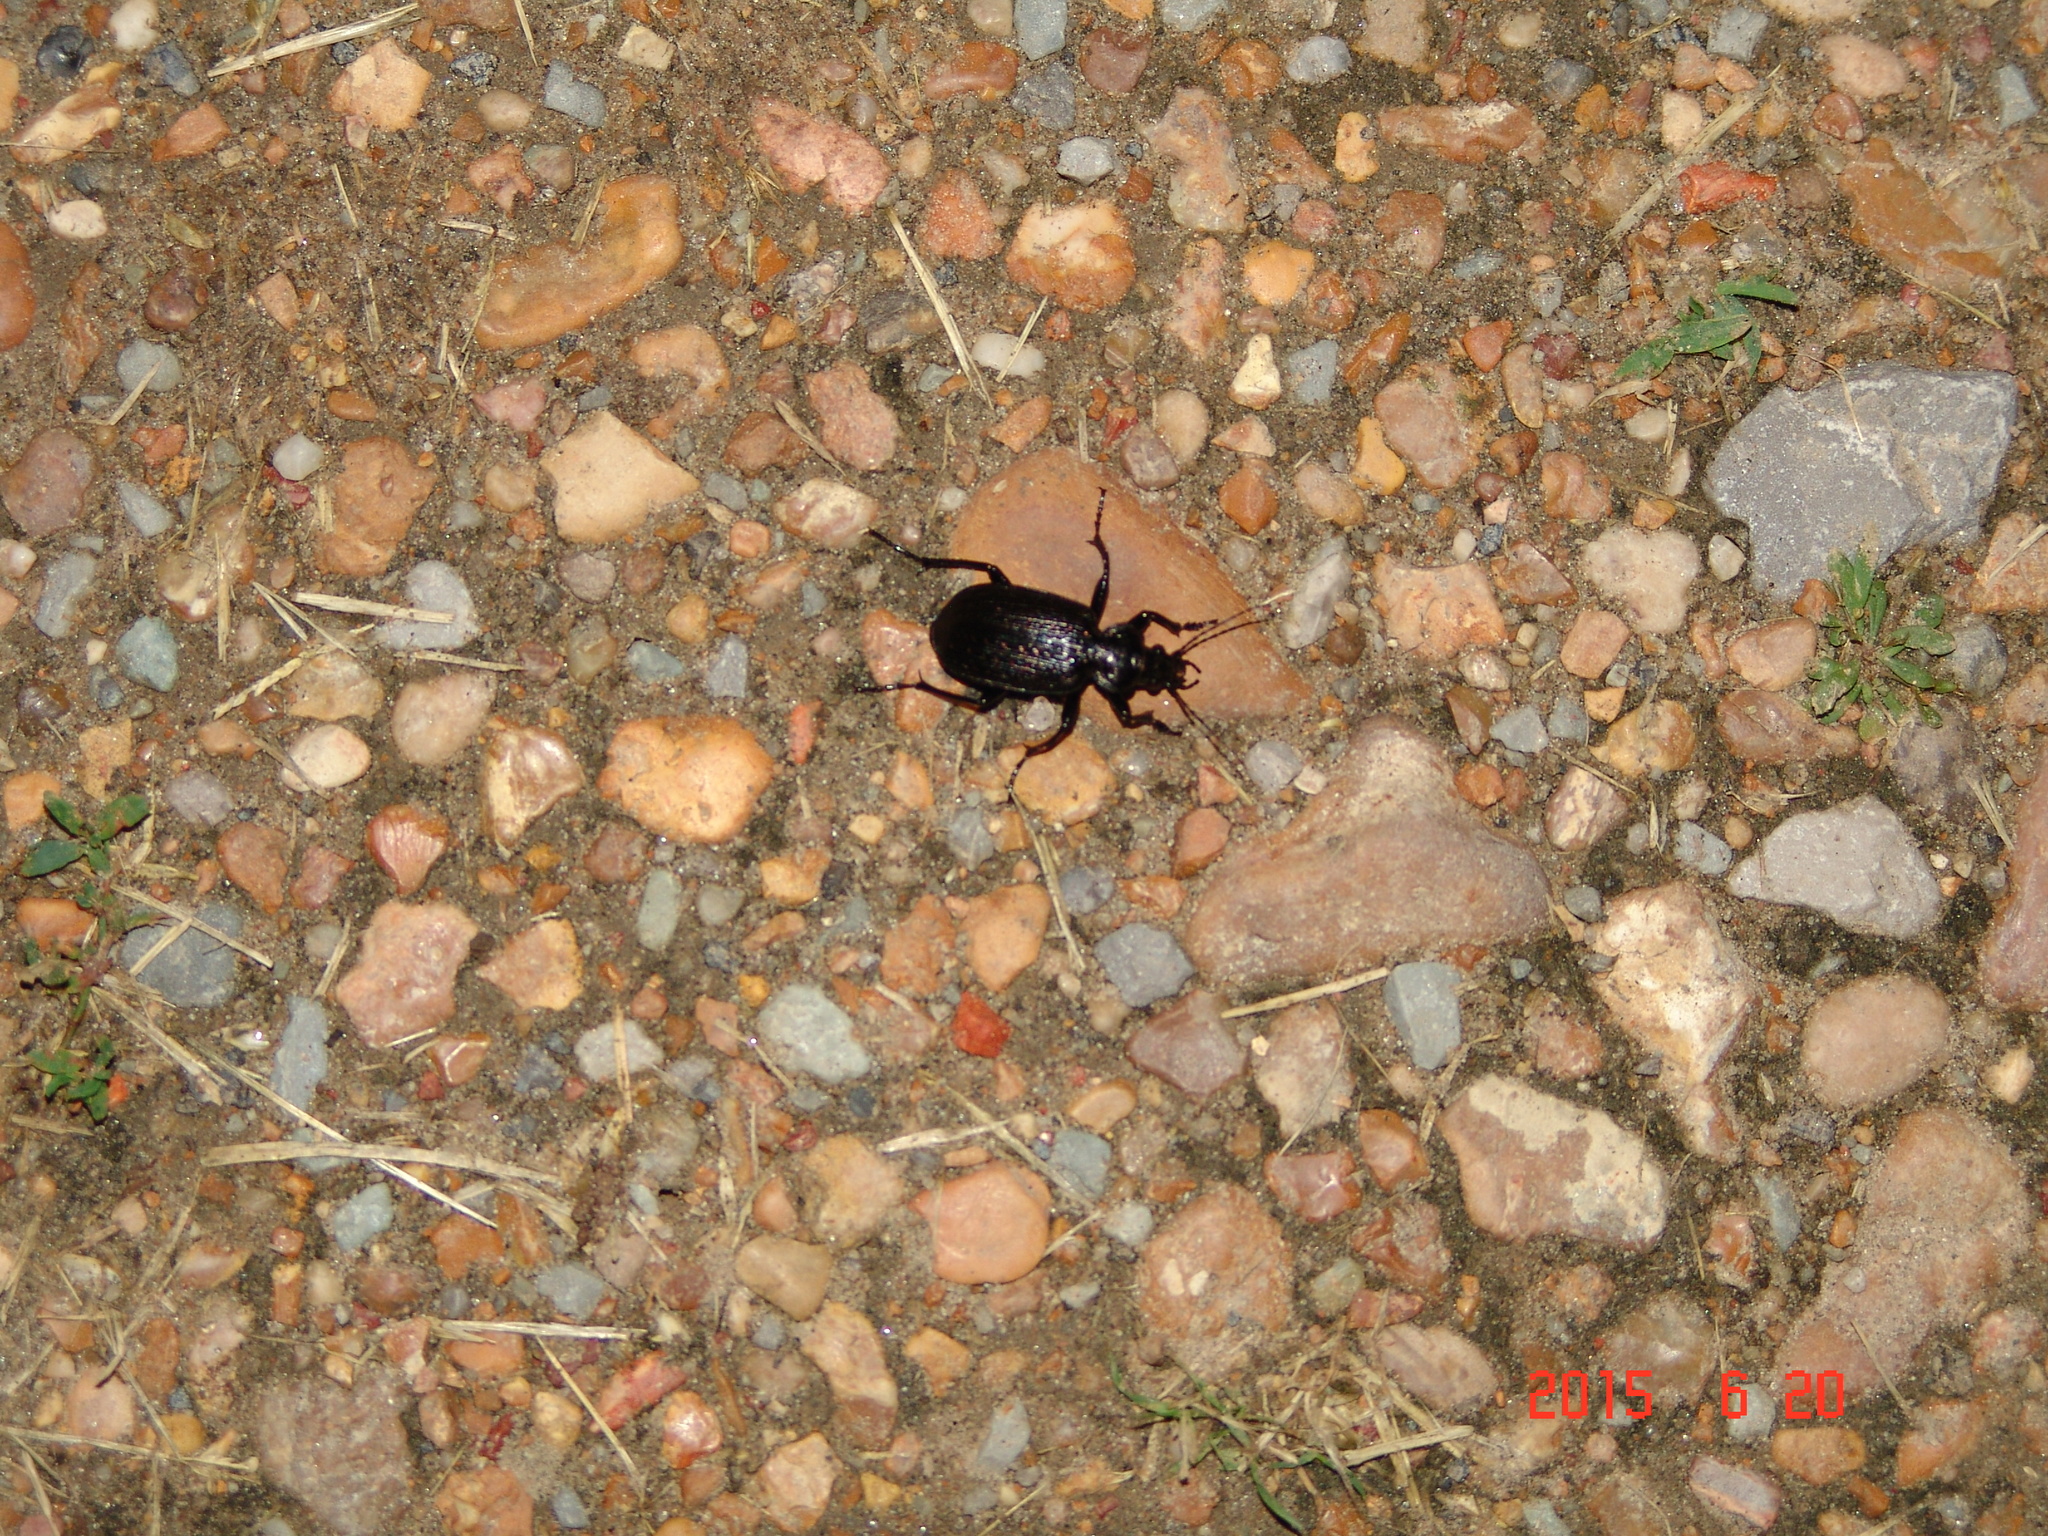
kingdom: Animalia
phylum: Arthropoda
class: Insecta
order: Coleoptera
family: Carabidae
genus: Calosoma
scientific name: Calosoma sayi
